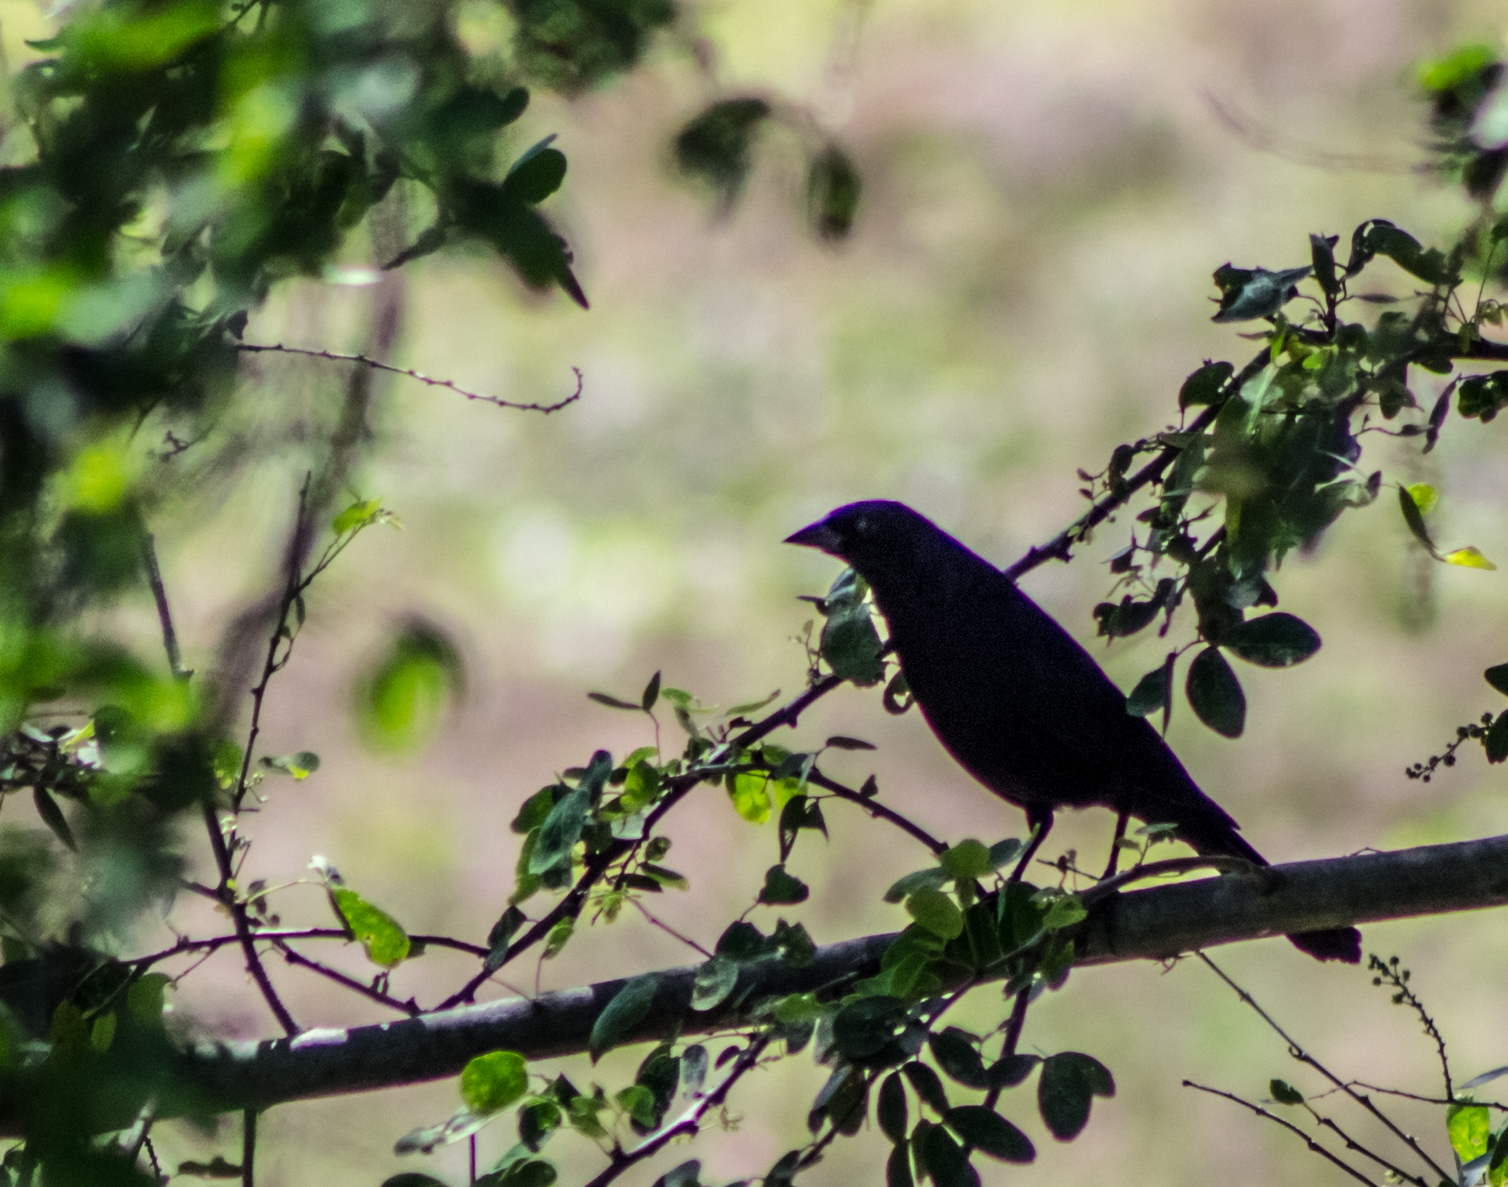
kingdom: Animalia
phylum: Chordata
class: Aves
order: Passeriformes
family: Icteridae
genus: Molothrus
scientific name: Molothrus bonariensis
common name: Shiny cowbird
